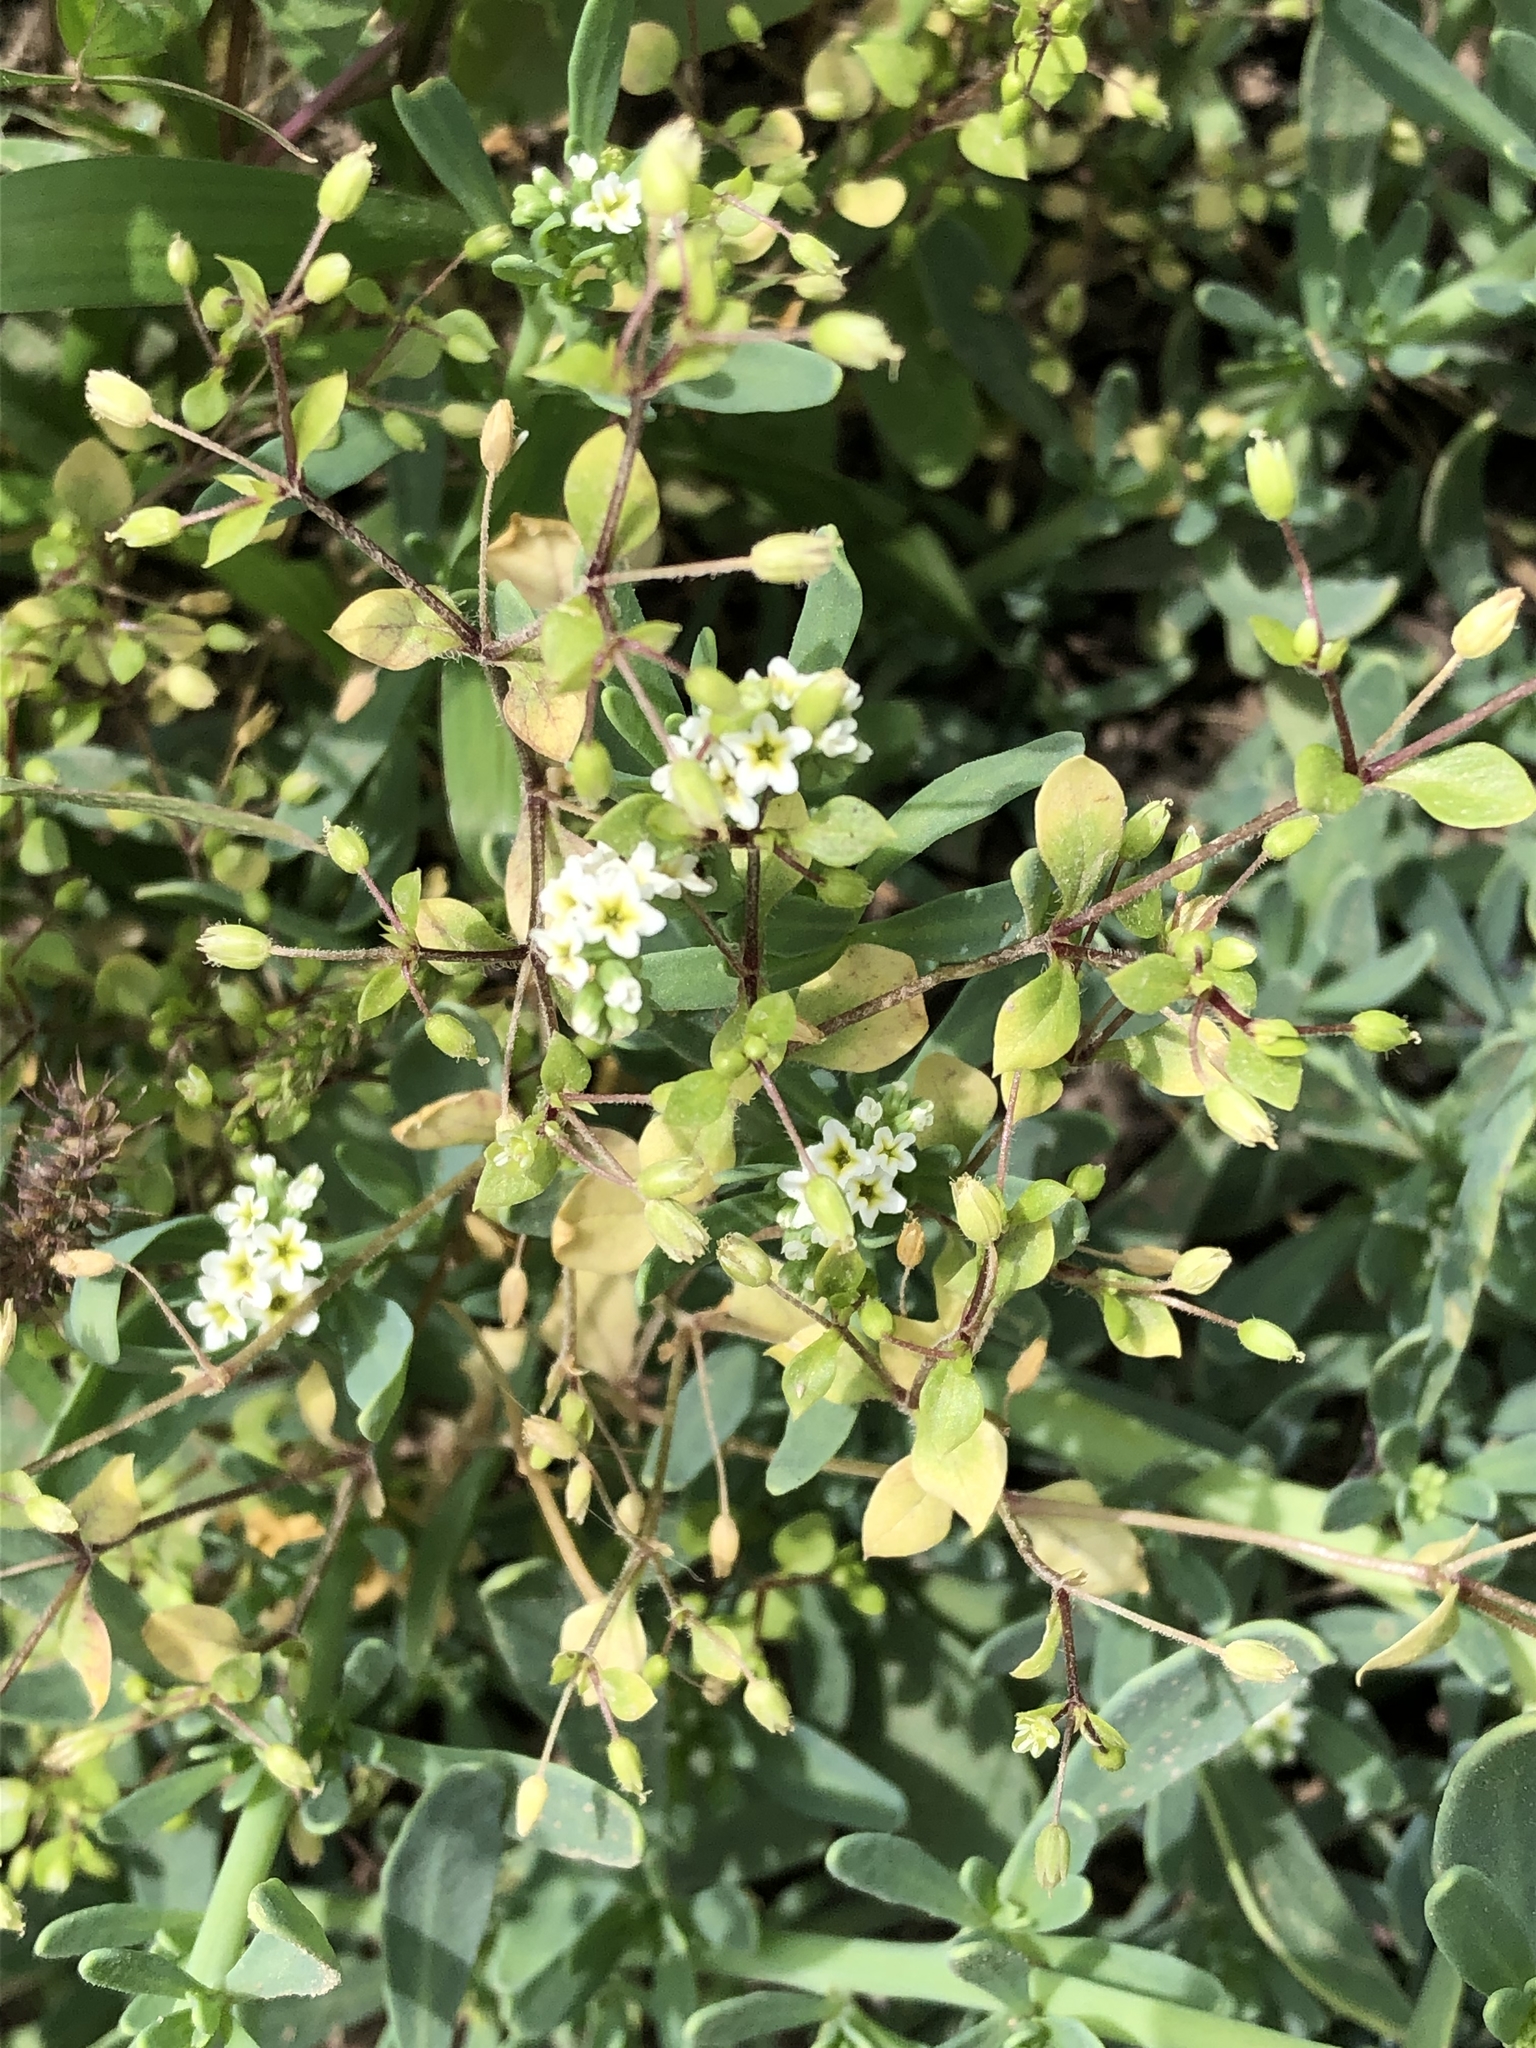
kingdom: Plantae
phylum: Tracheophyta
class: Magnoliopsida
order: Boraginales
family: Heliotropiaceae
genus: Heliotropium
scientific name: Heliotropium curassavicum
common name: Seaside heliotrope
